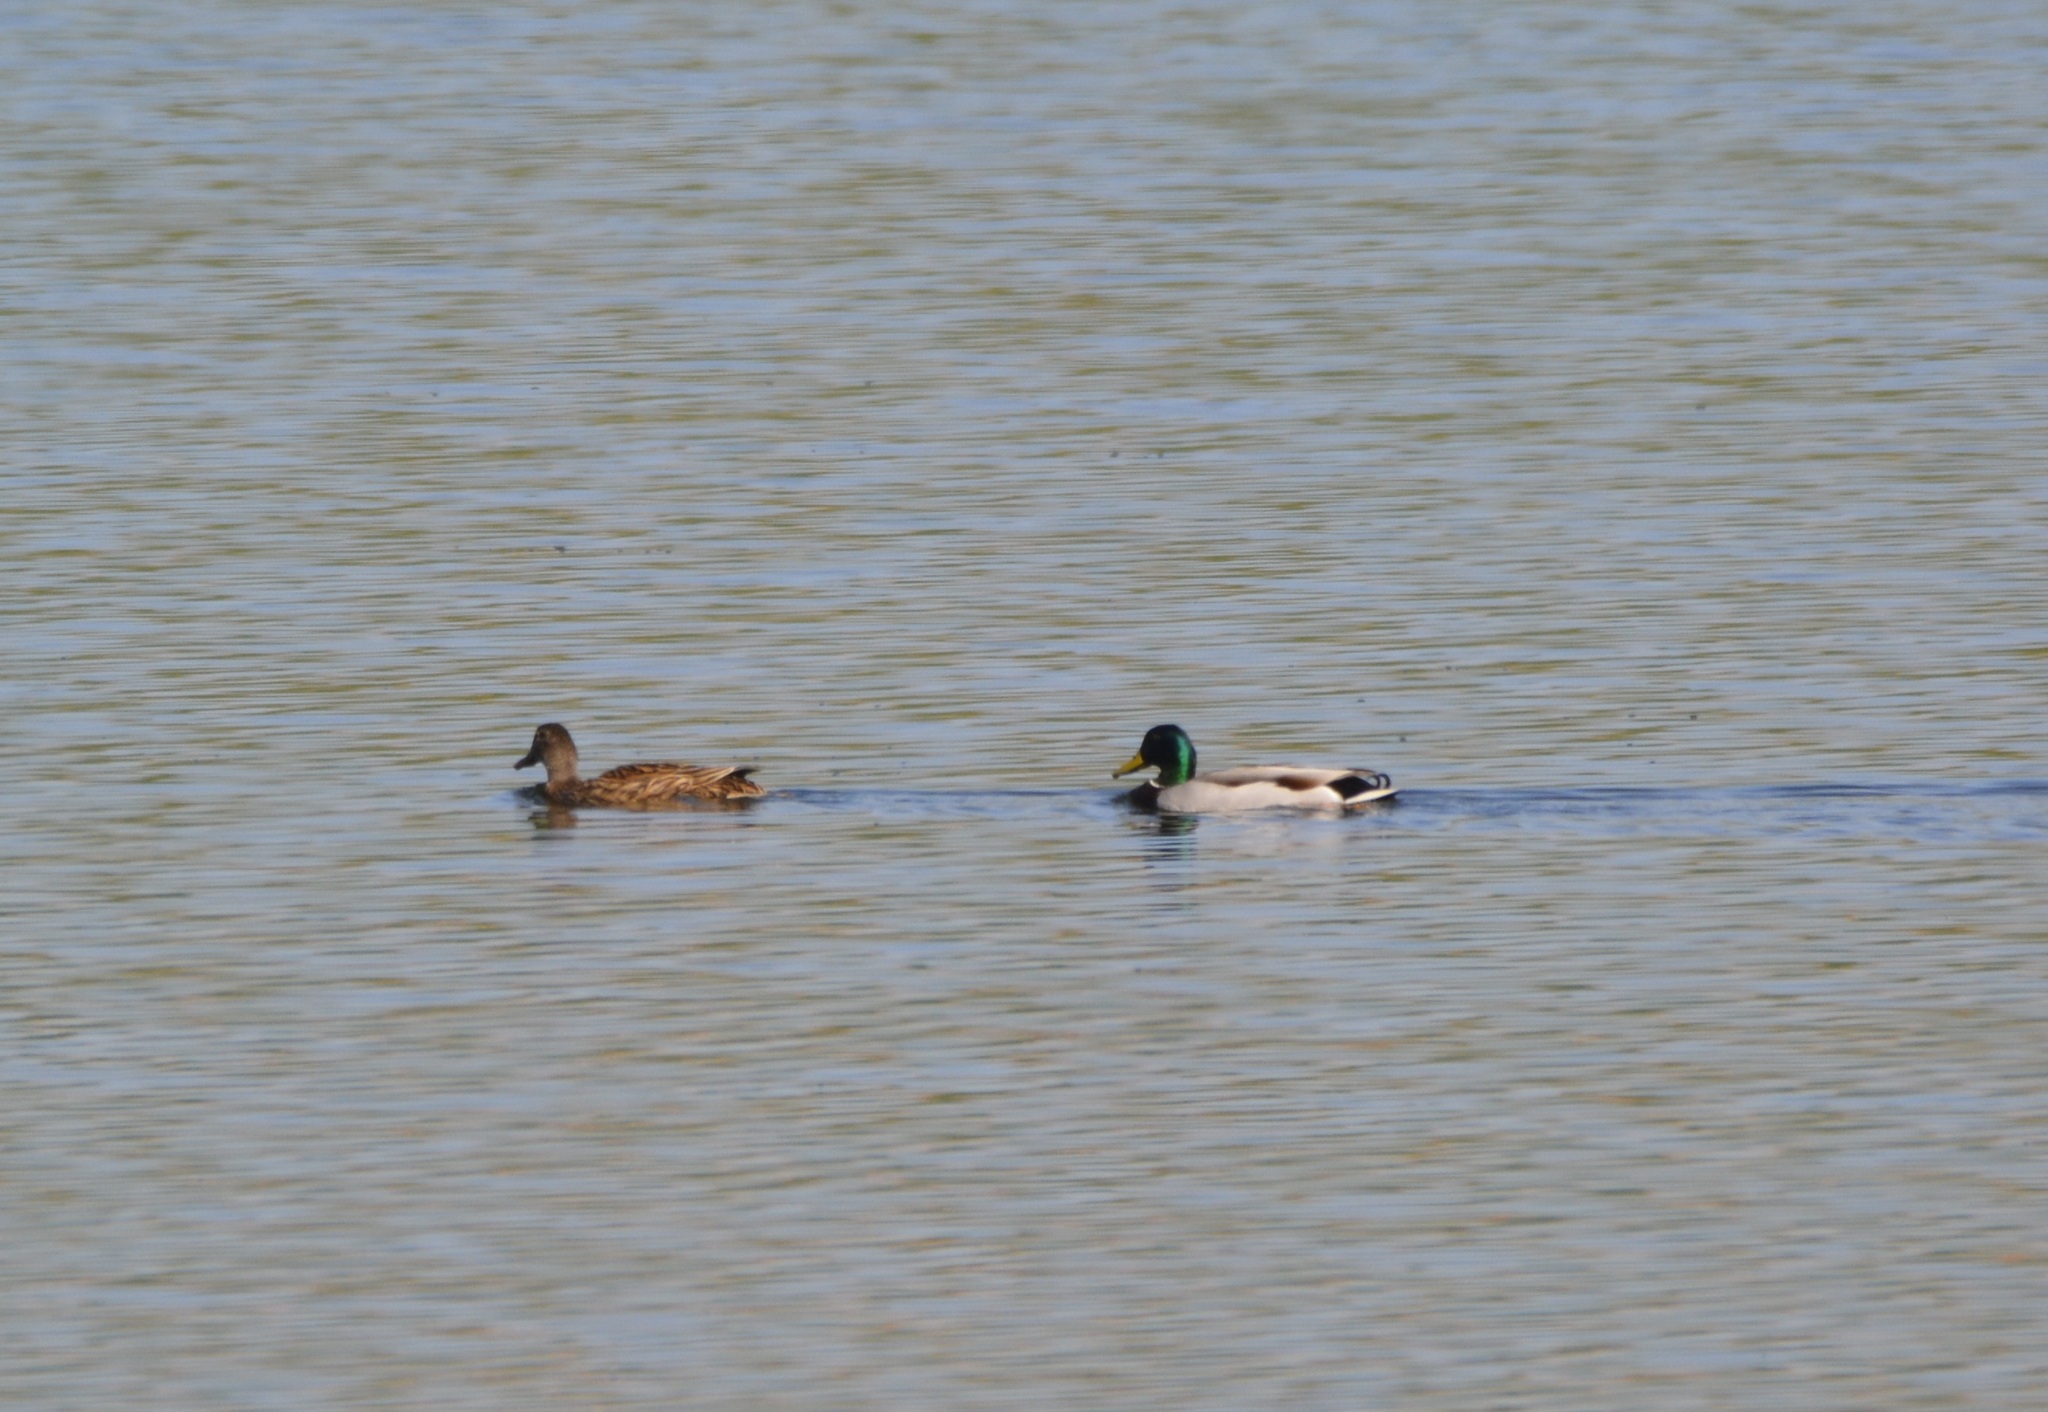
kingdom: Animalia
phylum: Chordata
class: Aves
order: Anseriformes
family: Anatidae
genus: Anas
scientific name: Anas platyrhynchos
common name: Mallard
